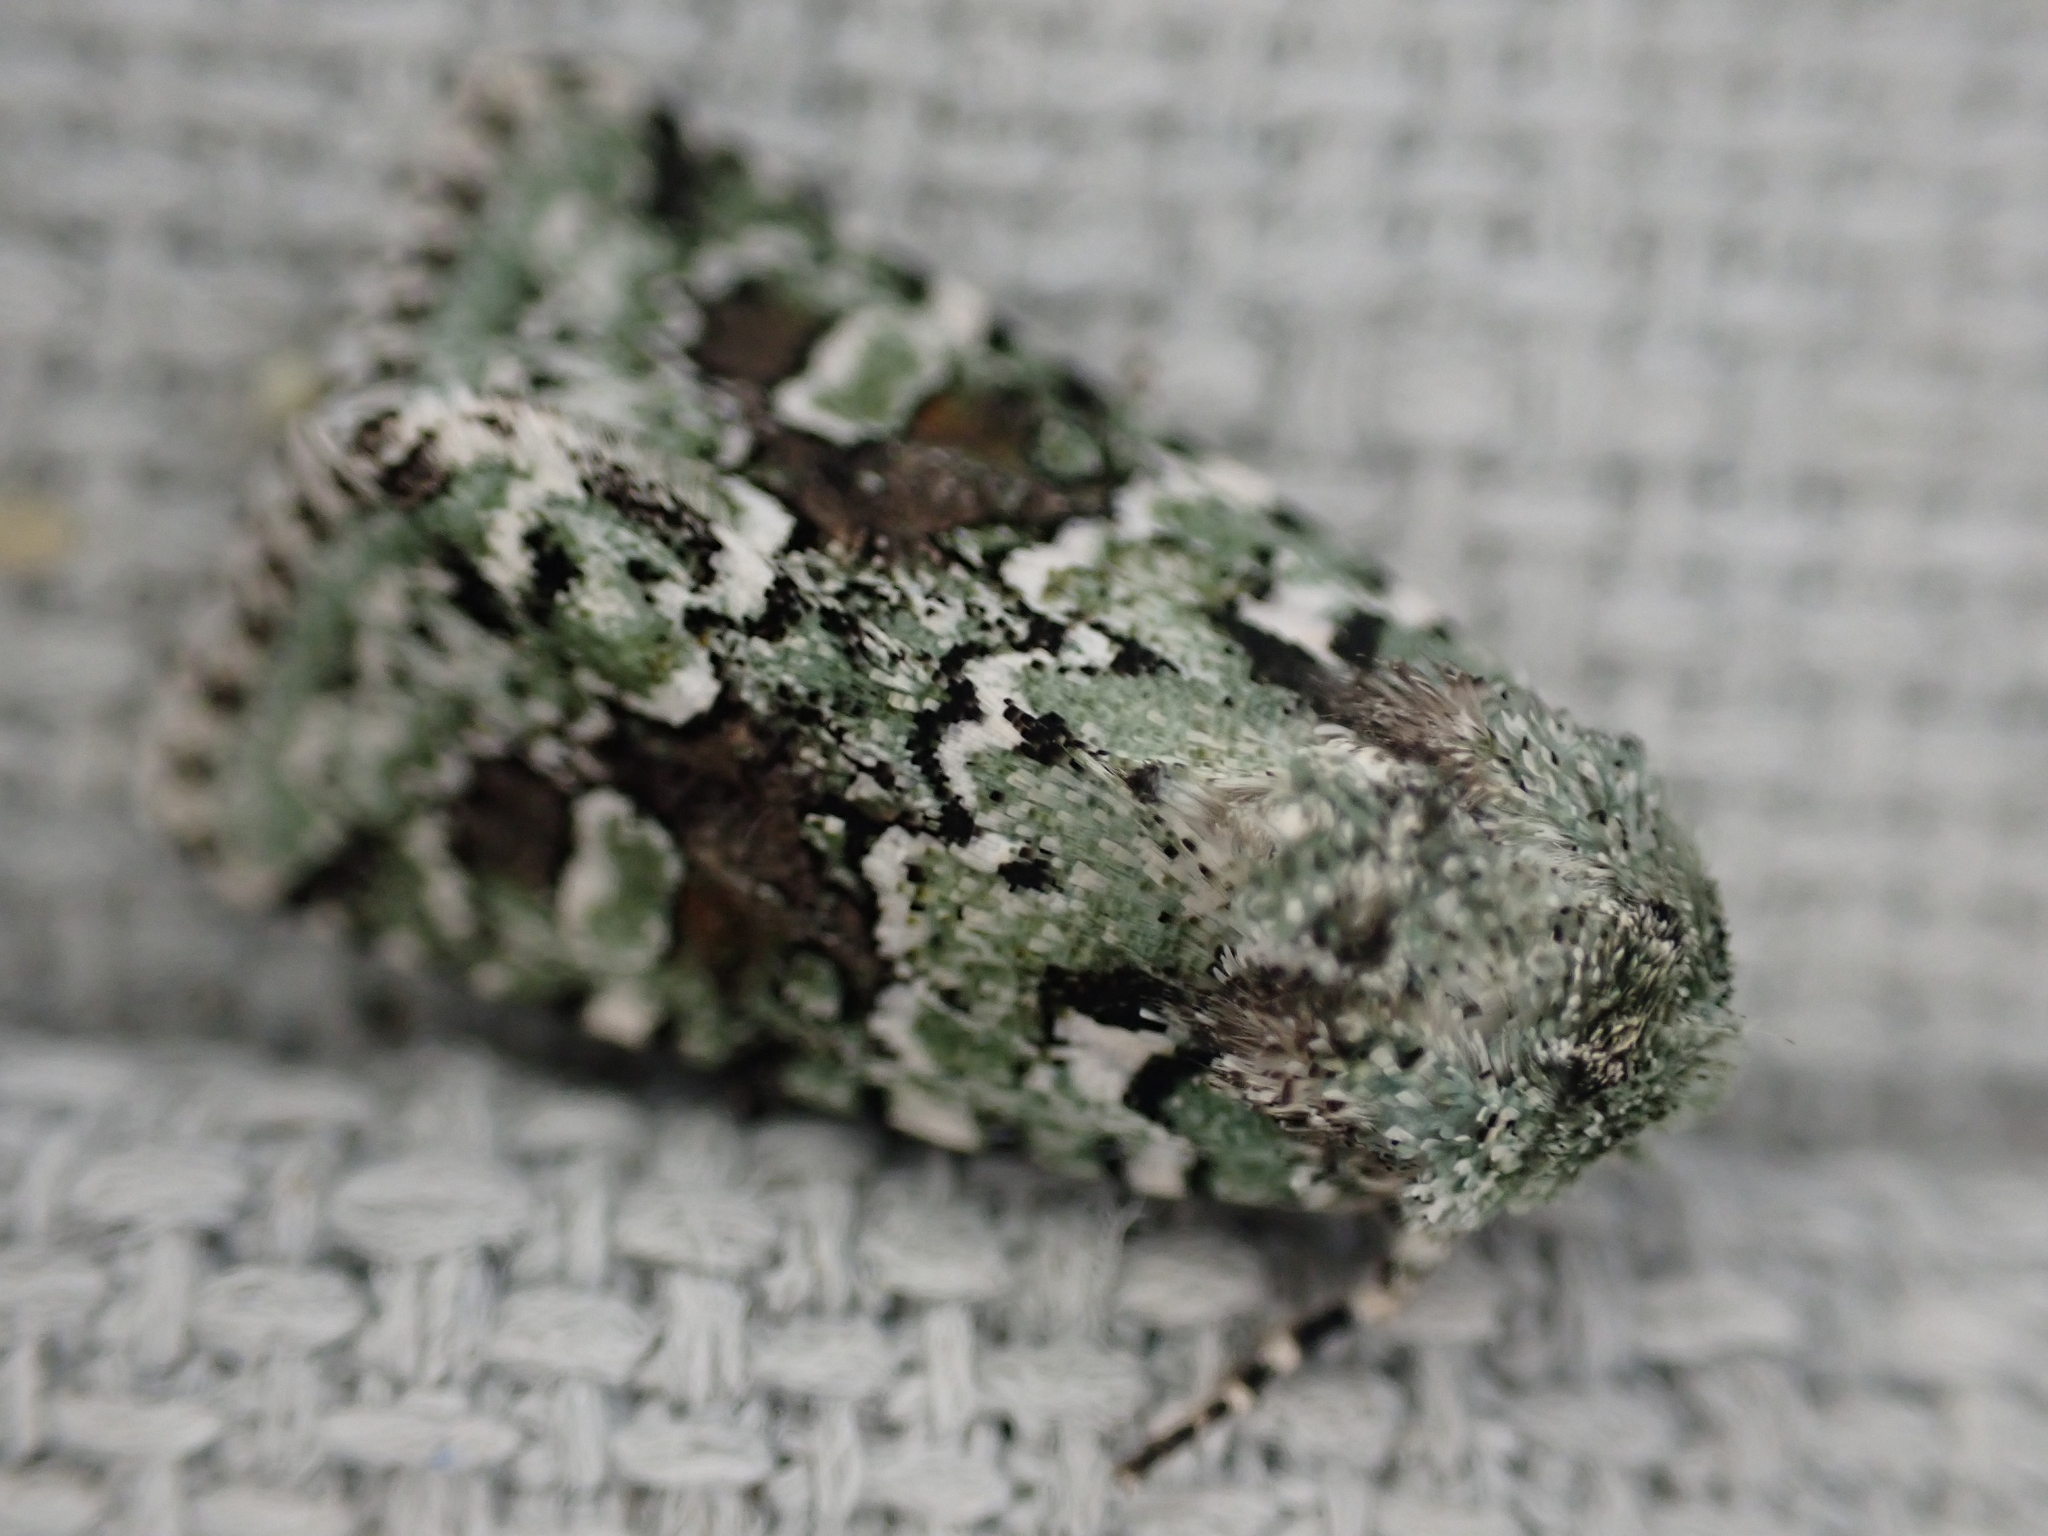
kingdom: Animalia
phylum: Arthropoda
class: Insecta
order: Lepidoptera
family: Noctuidae
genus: Lacinipolia
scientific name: Lacinipolia laudabilis
